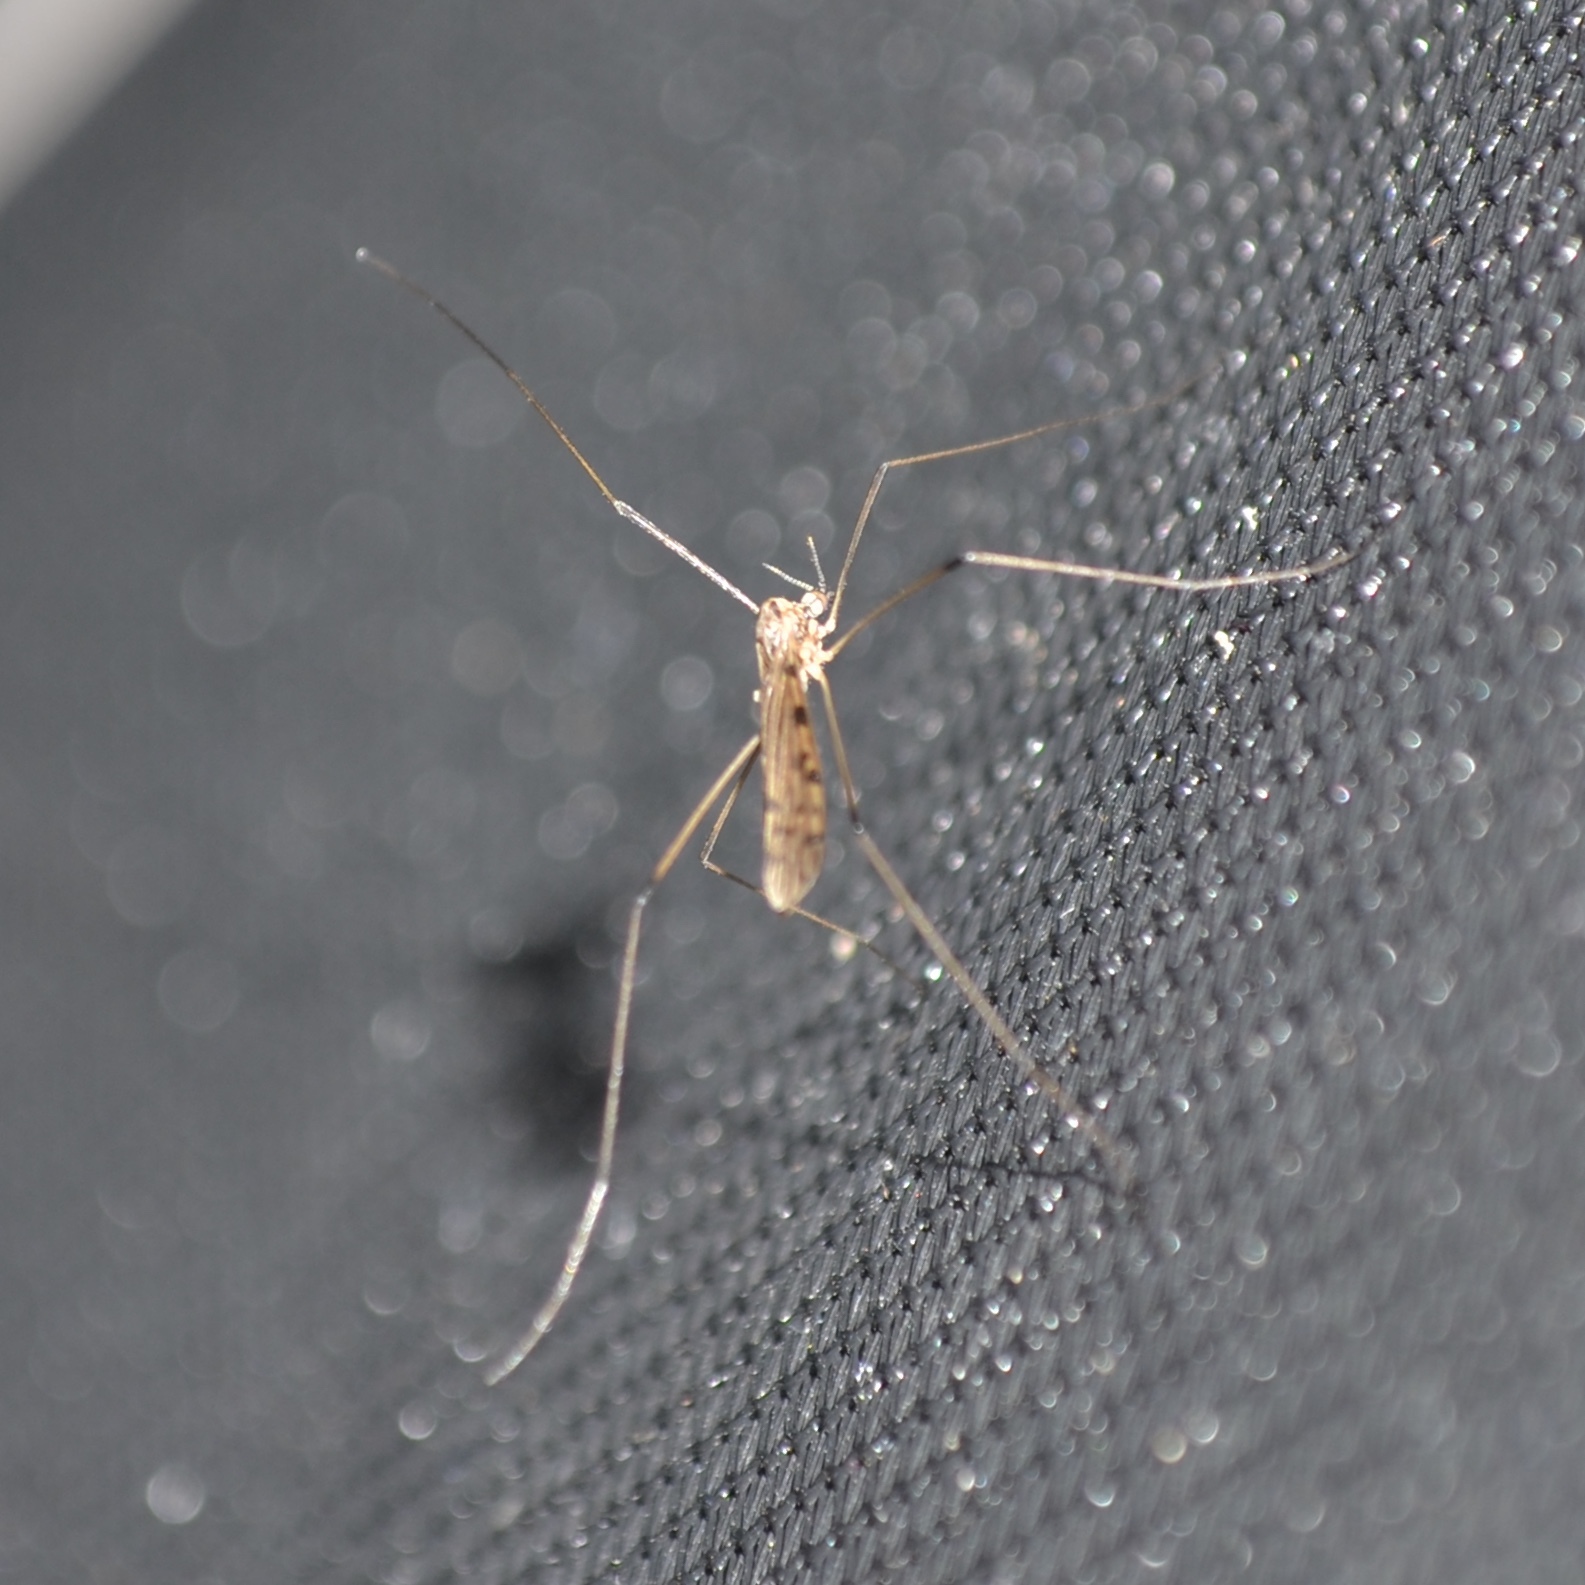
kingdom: Animalia
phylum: Arthropoda
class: Insecta
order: Diptera
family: Limoniidae
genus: Rhipidia
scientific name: Rhipidia domestica
